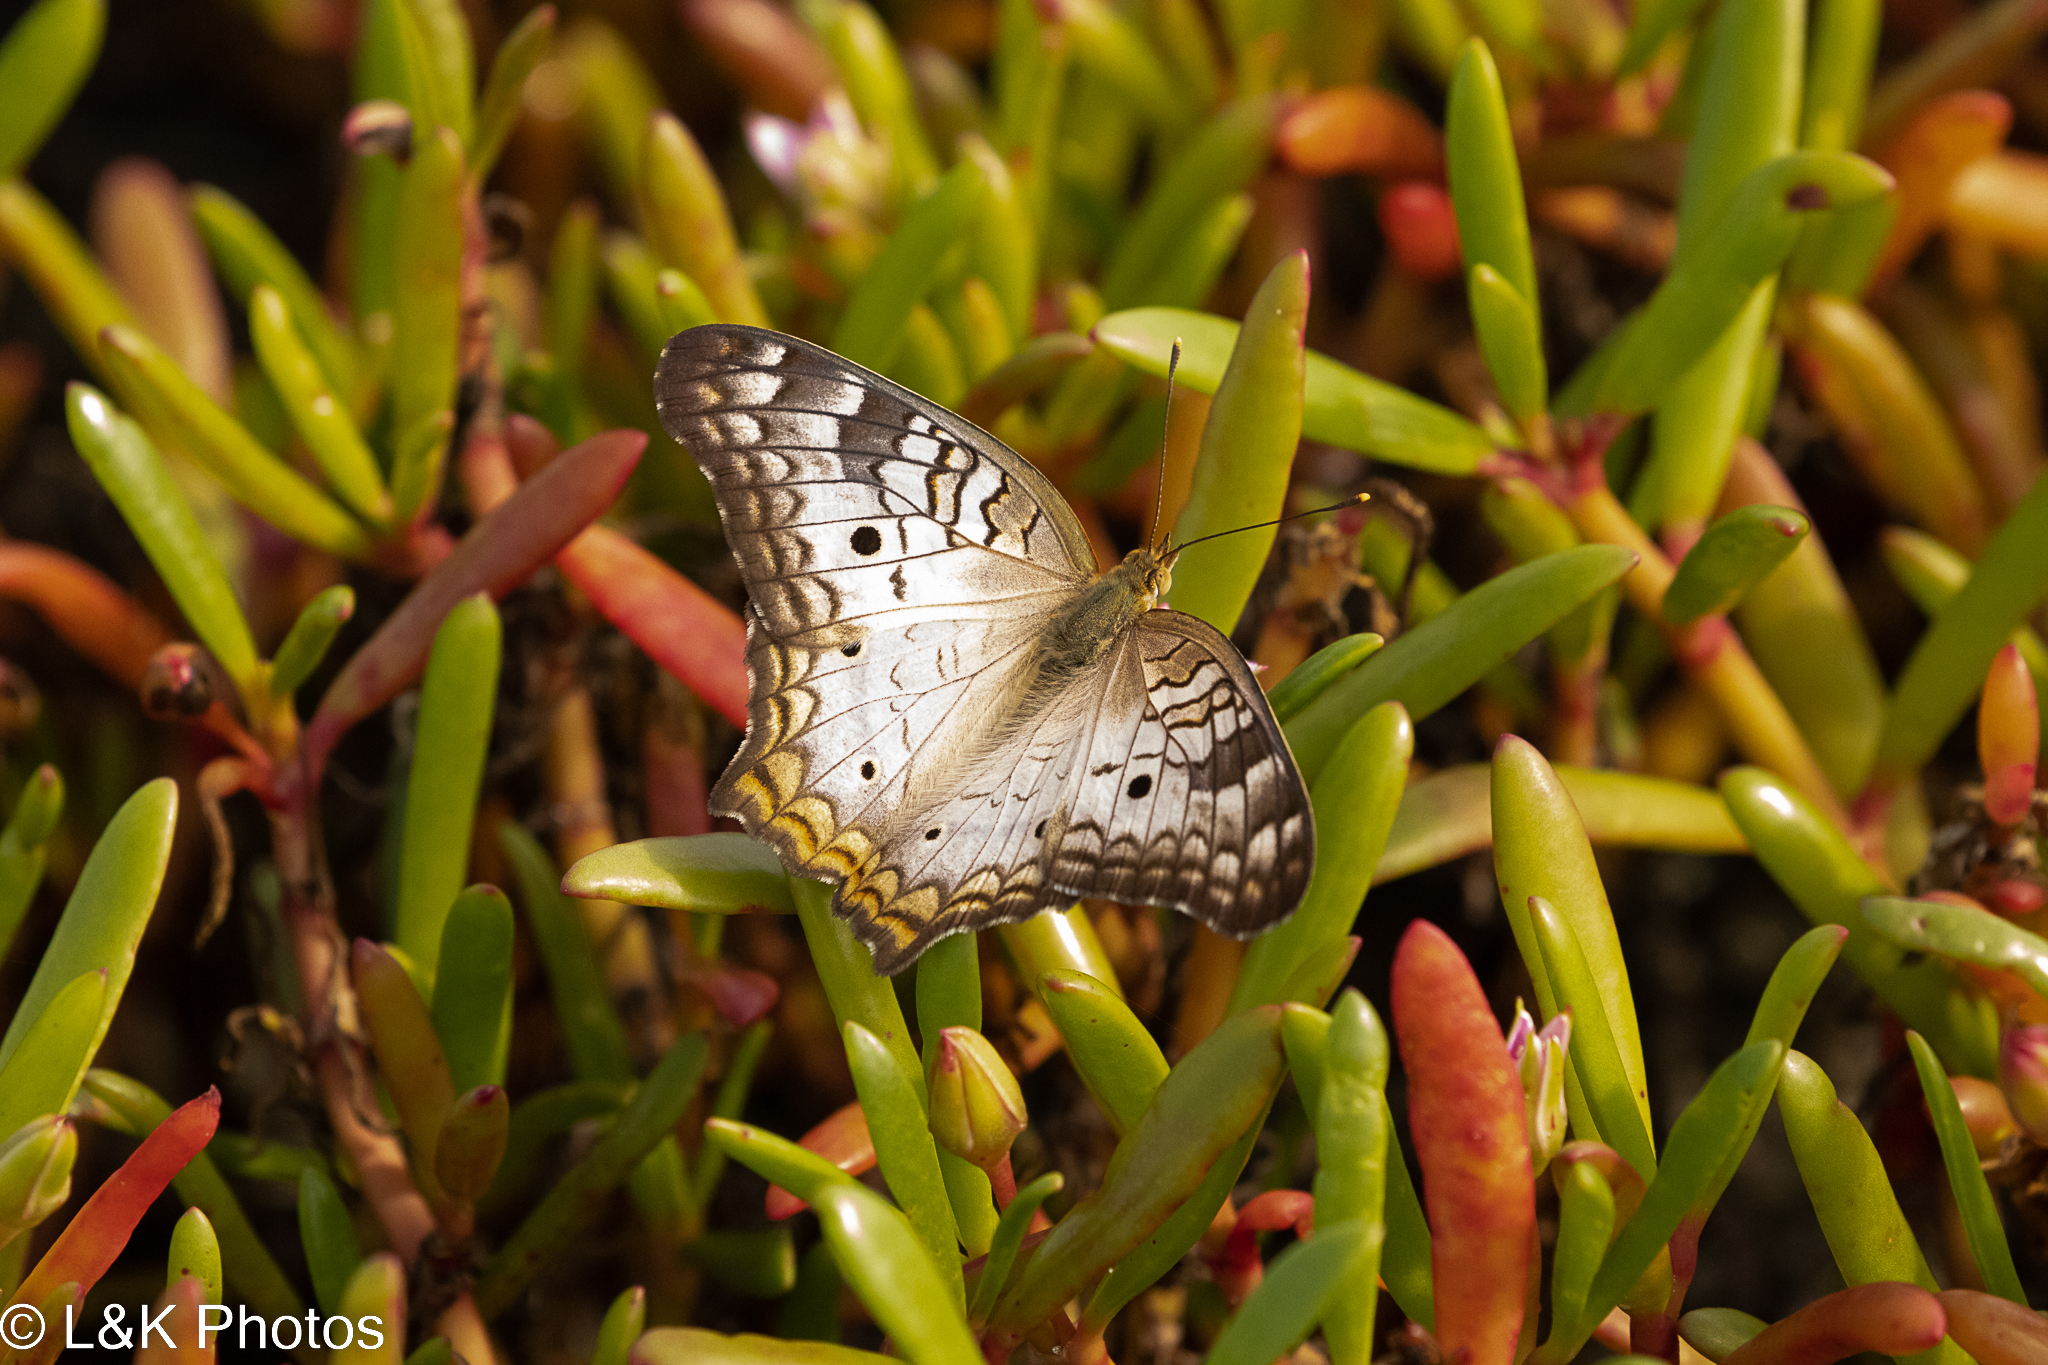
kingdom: Animalia
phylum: Arthropoda
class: Insecta
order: Lepidoptera
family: Nymphalidae
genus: Anartia
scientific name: Anartia jatrophae
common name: White peacock
